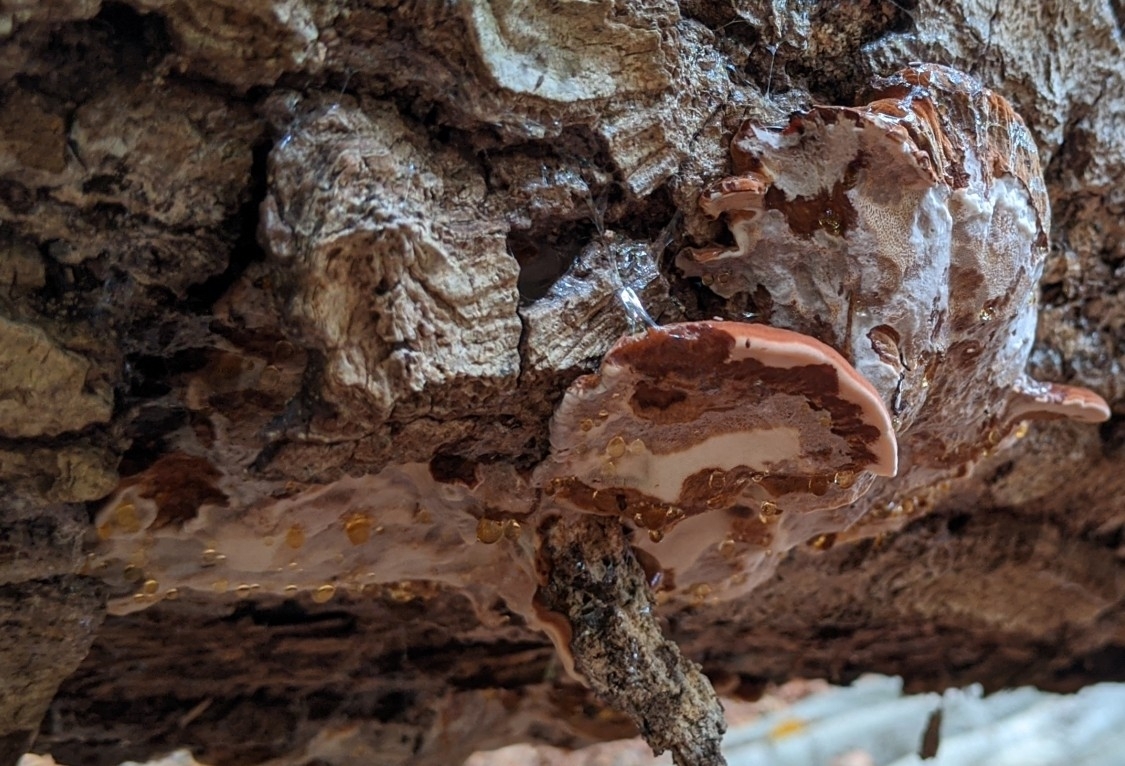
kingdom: Fungi
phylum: Basidiomycota
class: Agaricomycetes
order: Polyporales
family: Ischnodermataceae
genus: Ischnoderma
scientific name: Ischnoderma resinosum
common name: Resinous polypore
